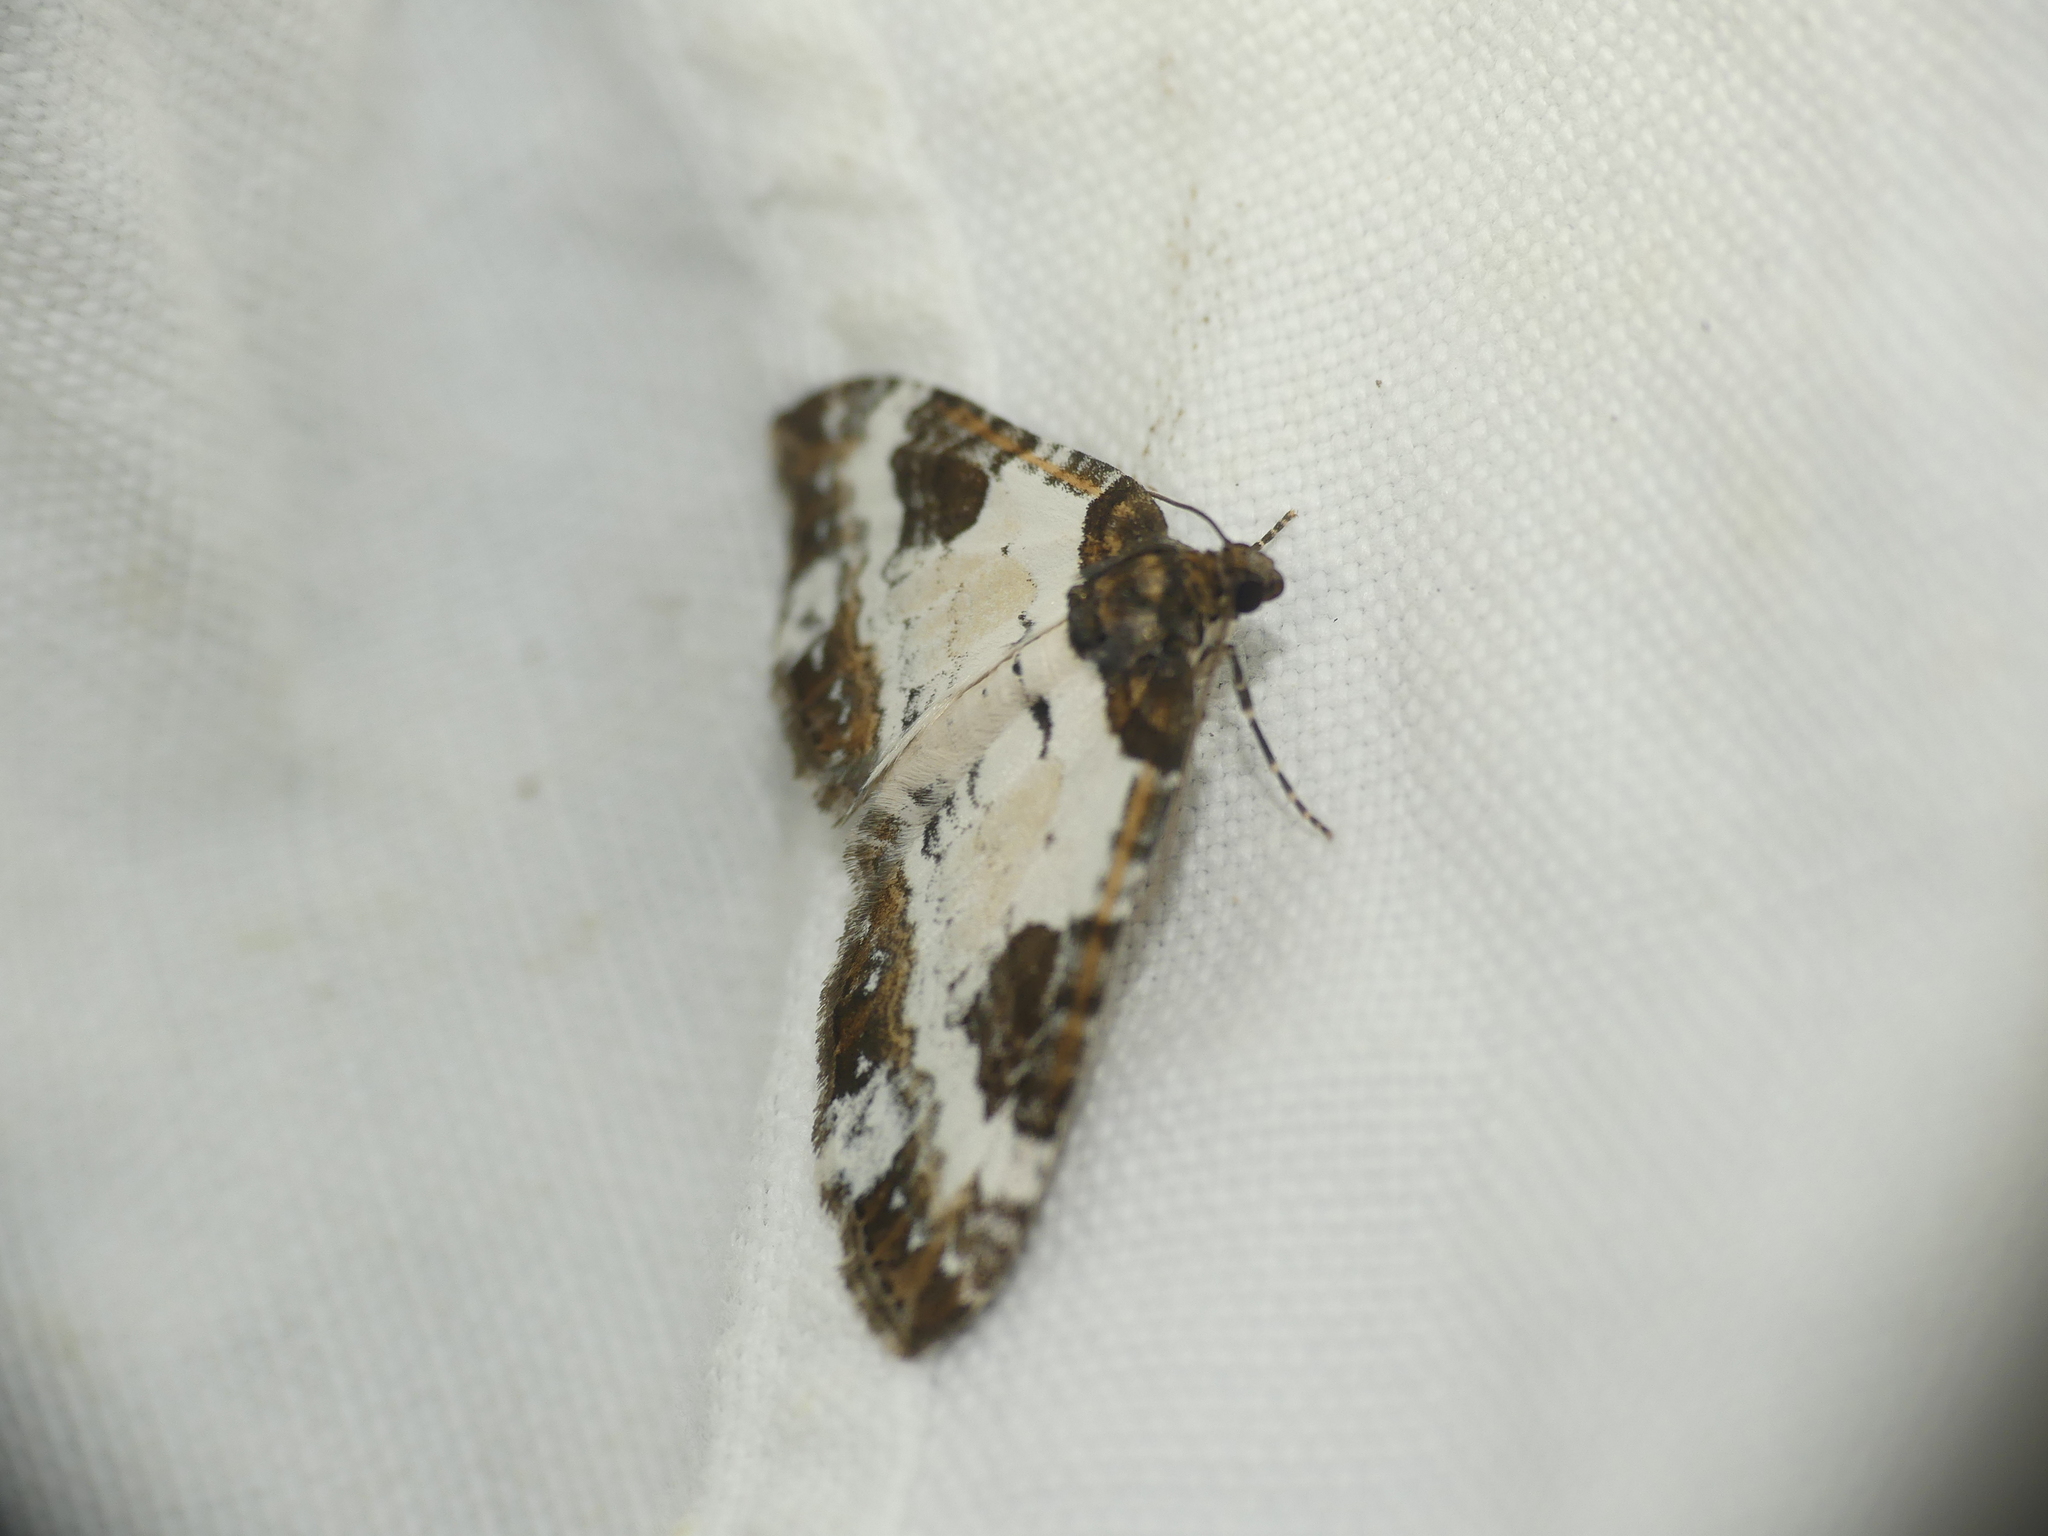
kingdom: Animalia
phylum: Arthropoda
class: Insecta
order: Lepidoptera
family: Geometridae
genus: Melanthia
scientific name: Melanthia procellata
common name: Pretty chalk carpet
